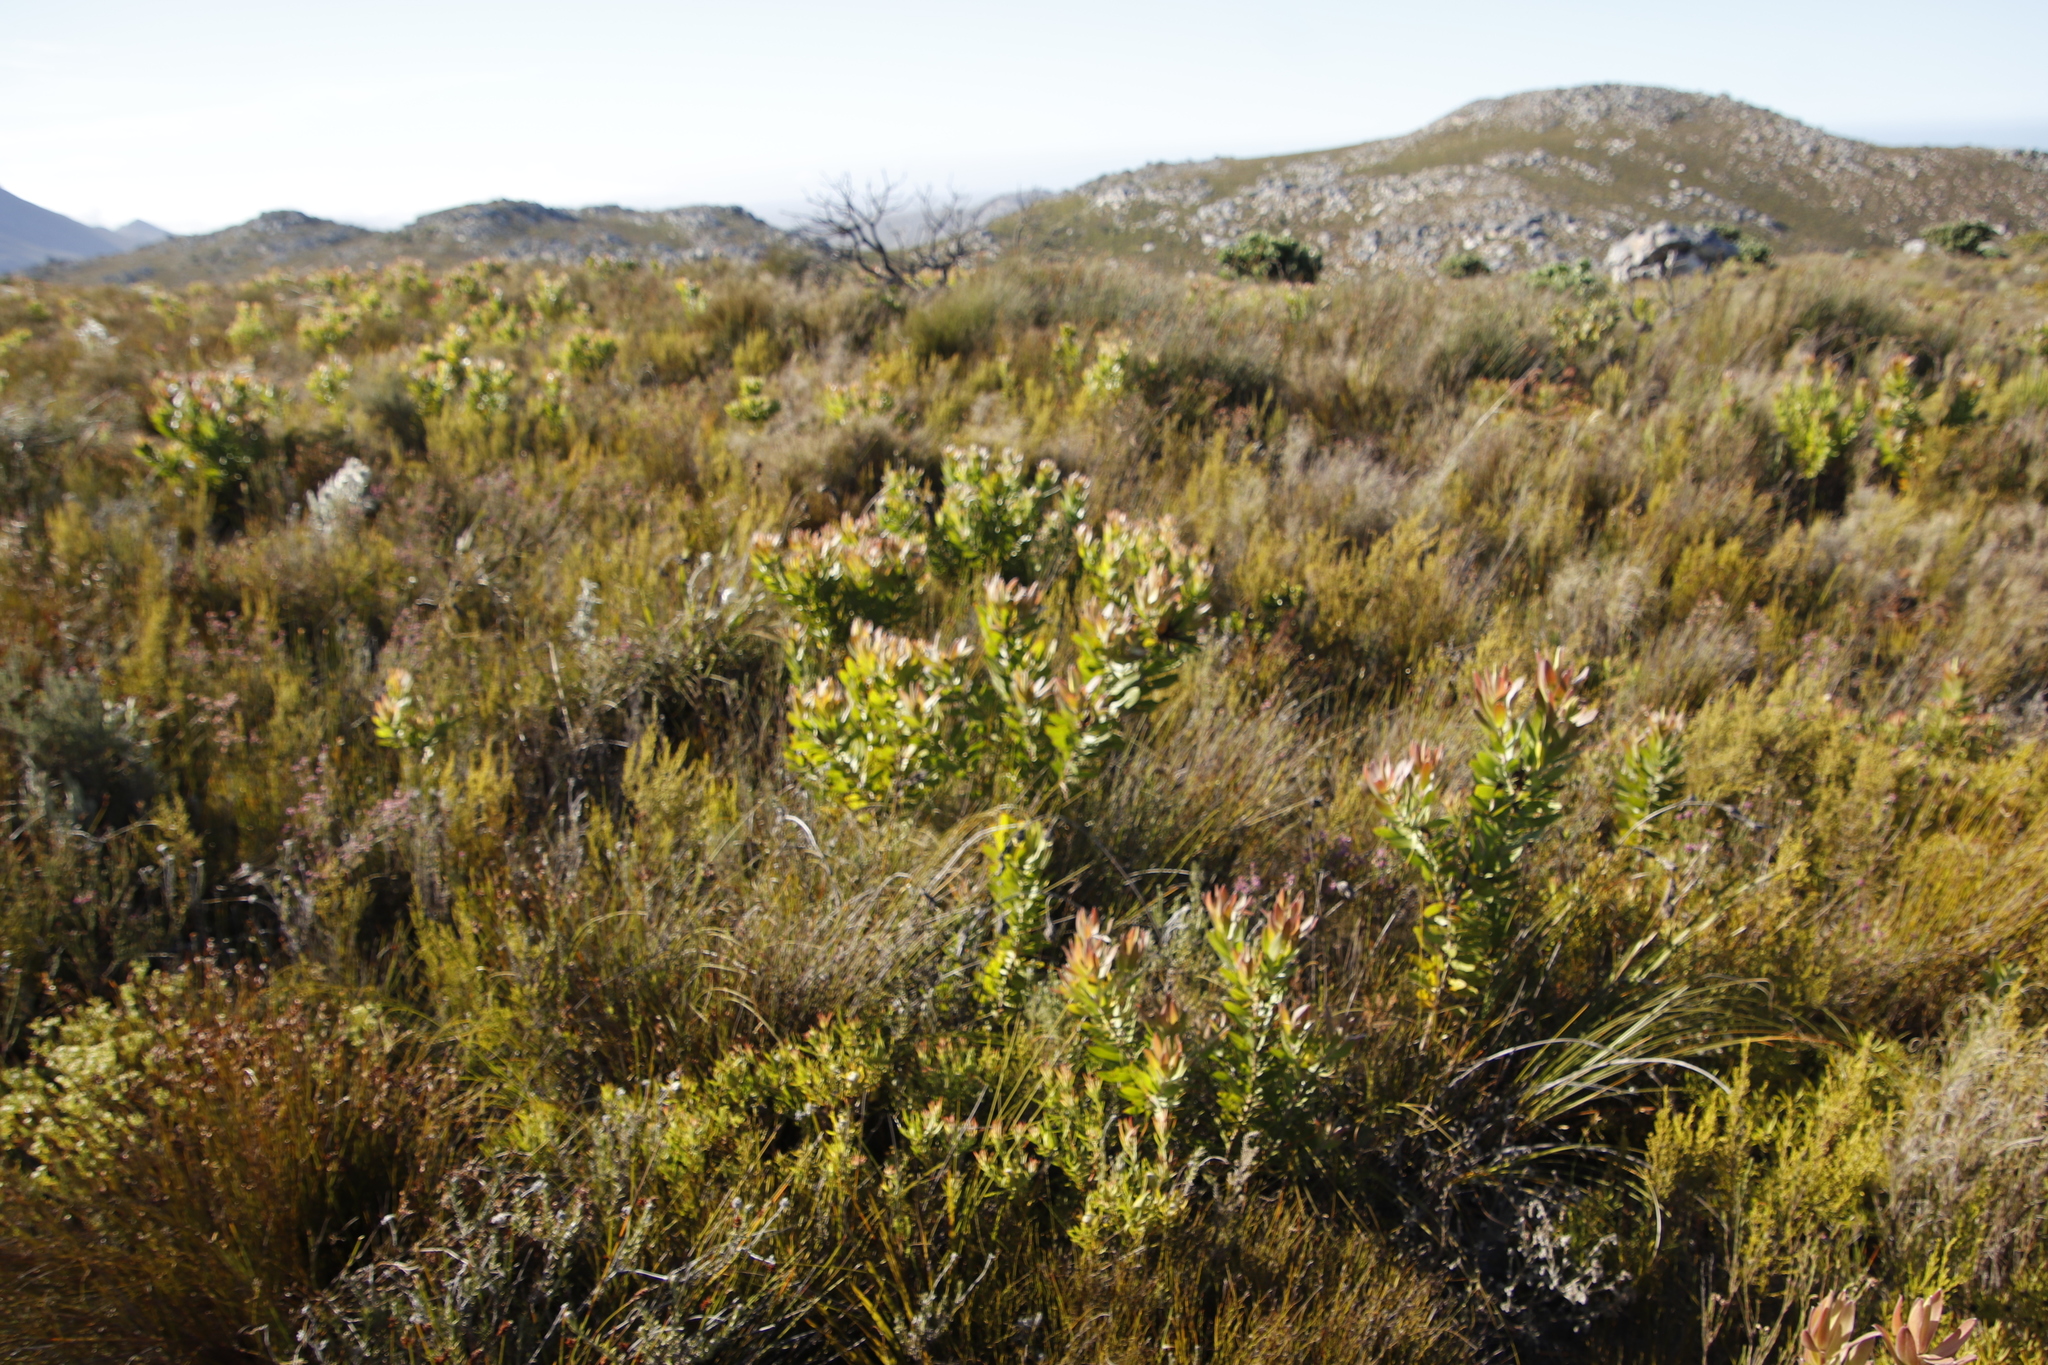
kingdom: Plantae
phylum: Tracheophyta
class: Magnoliopsida
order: Proteales
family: Proteaceae
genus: Leucadendron
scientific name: Leucadendron laureolum
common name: Golden sunshinebush
